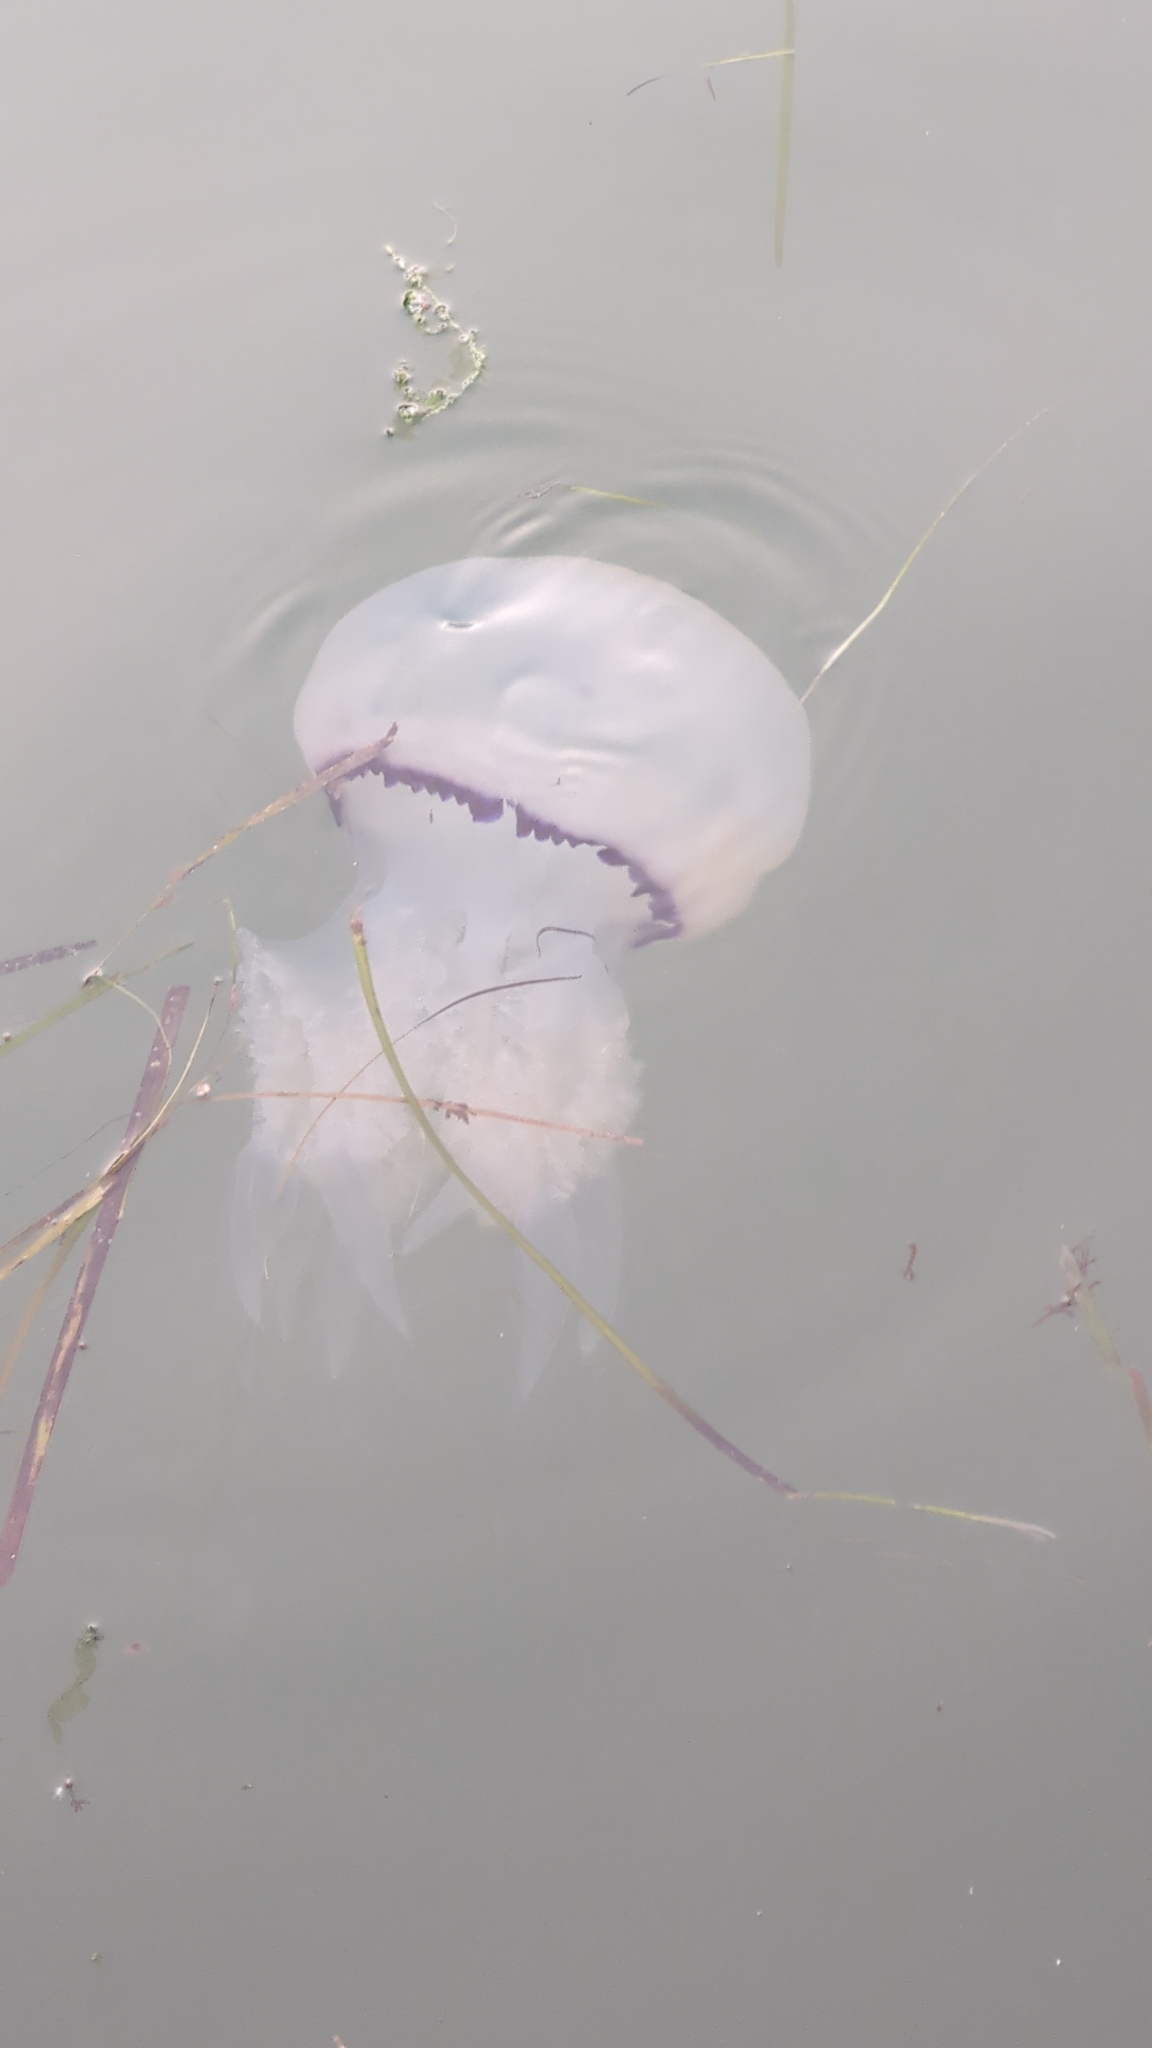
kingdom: Animalia
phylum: Cnidaria
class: Scyphozoa
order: Rhizostomeae
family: Rhizostomatidae
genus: Rhizostoma
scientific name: Rhizostoma pulmo
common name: Barrel jellyfish
